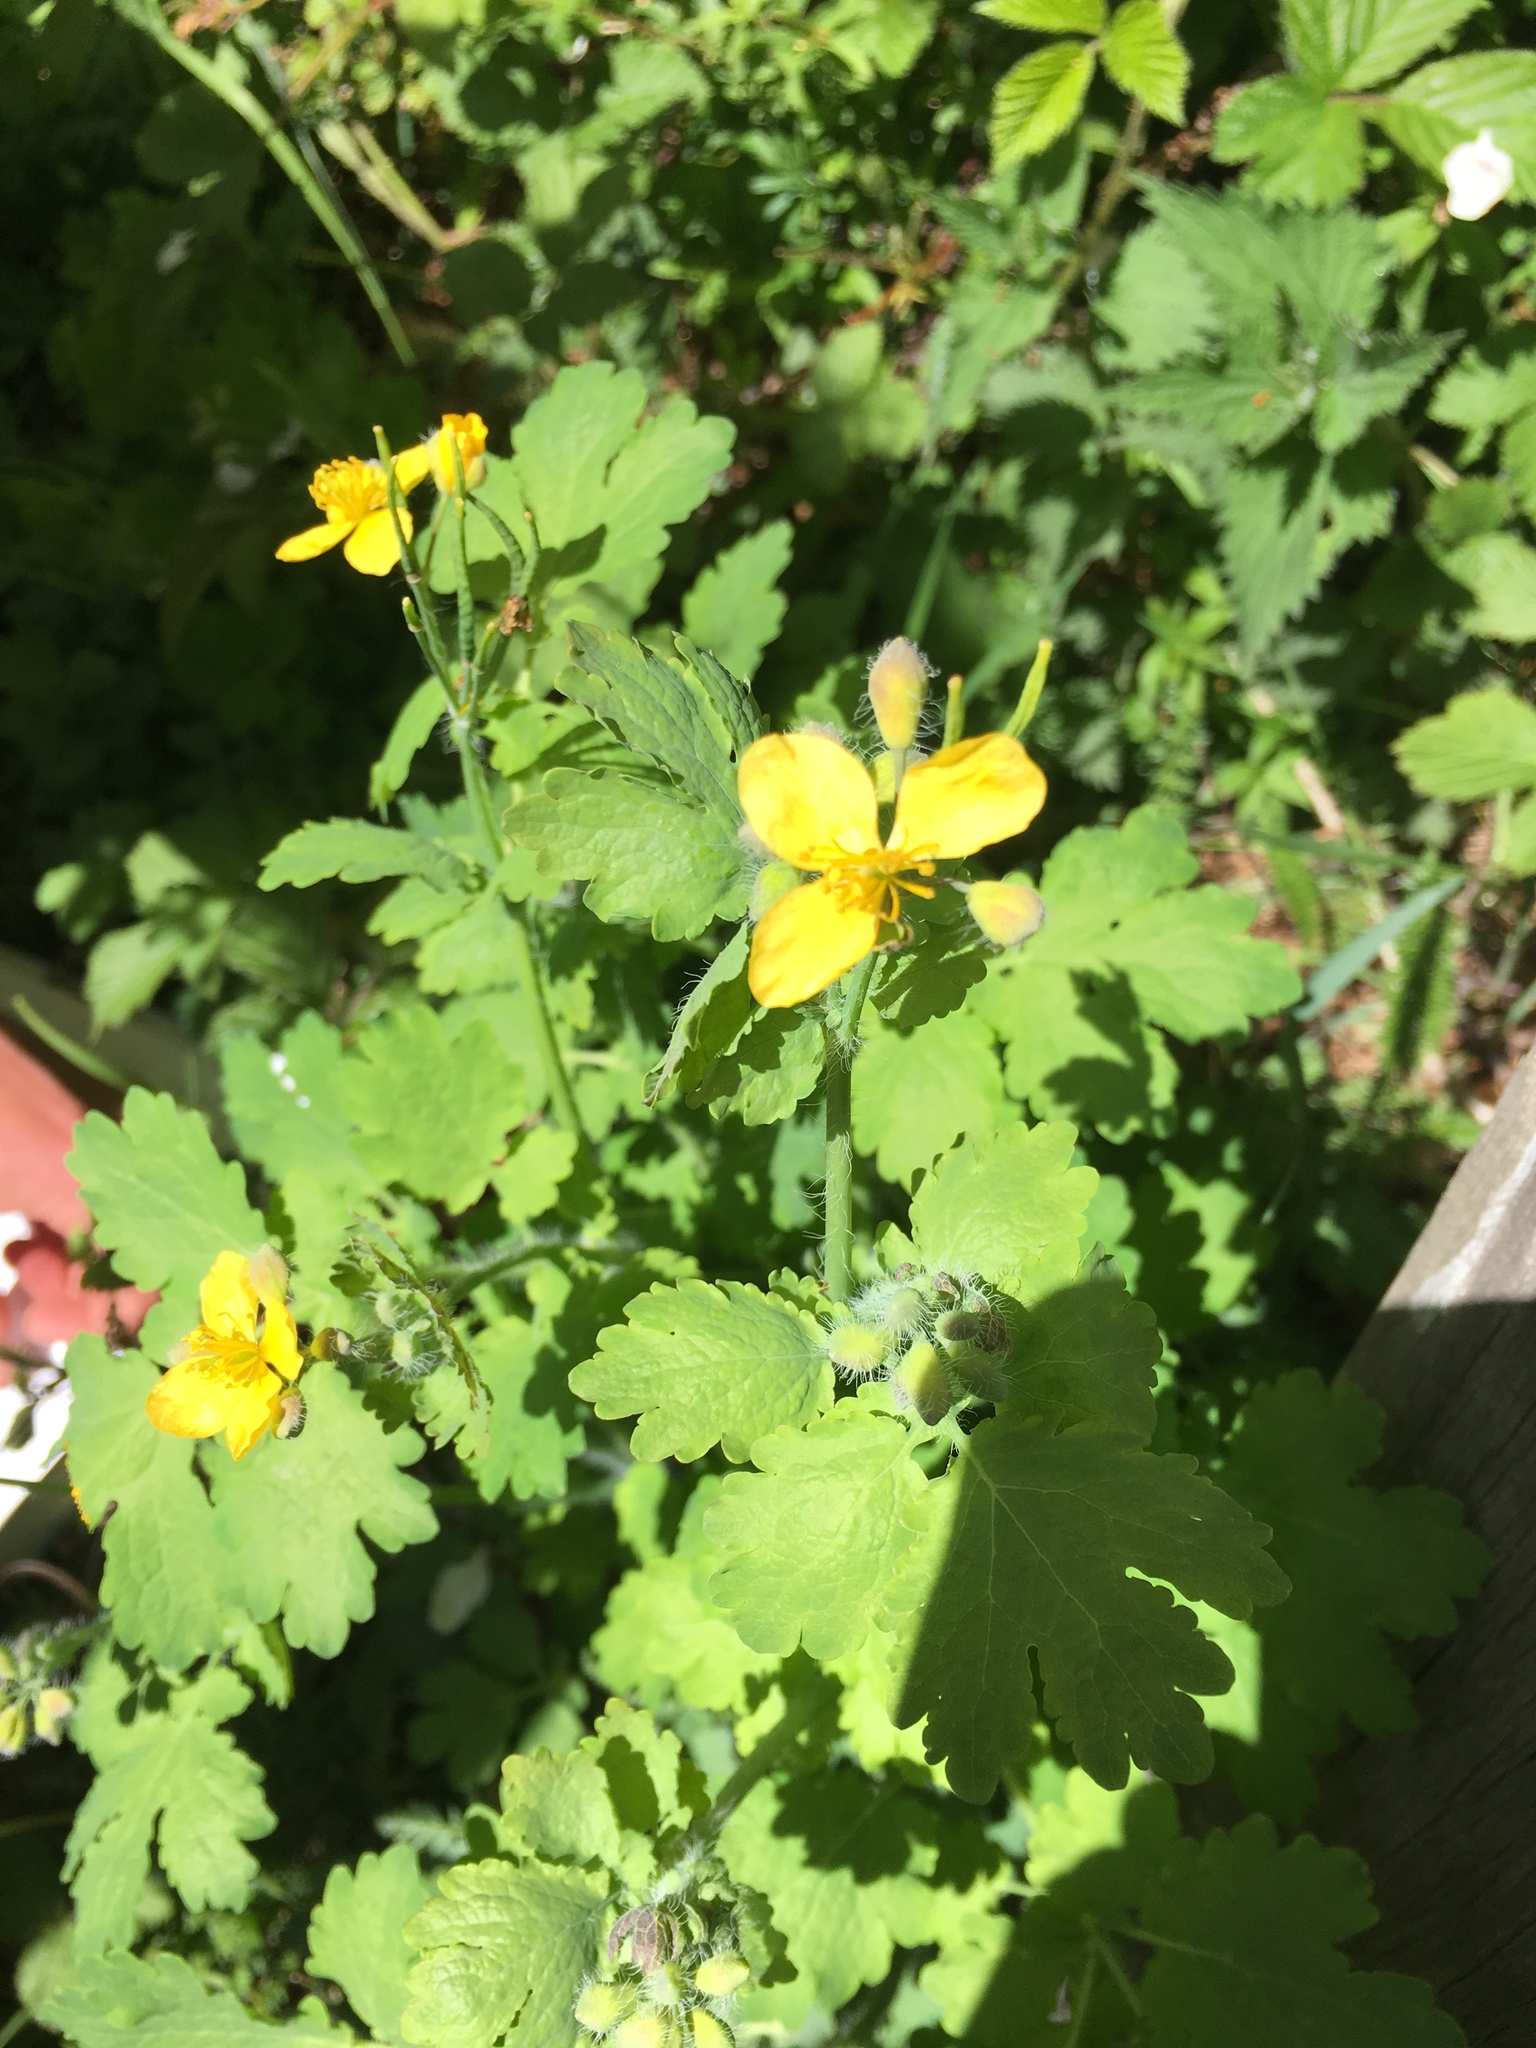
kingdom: Plantae
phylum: Tracheophyta
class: Magnoliopsida
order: Ranunculales
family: Papaveraceae
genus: Chelidonium
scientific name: Chelidonium majus
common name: Greater celandine
